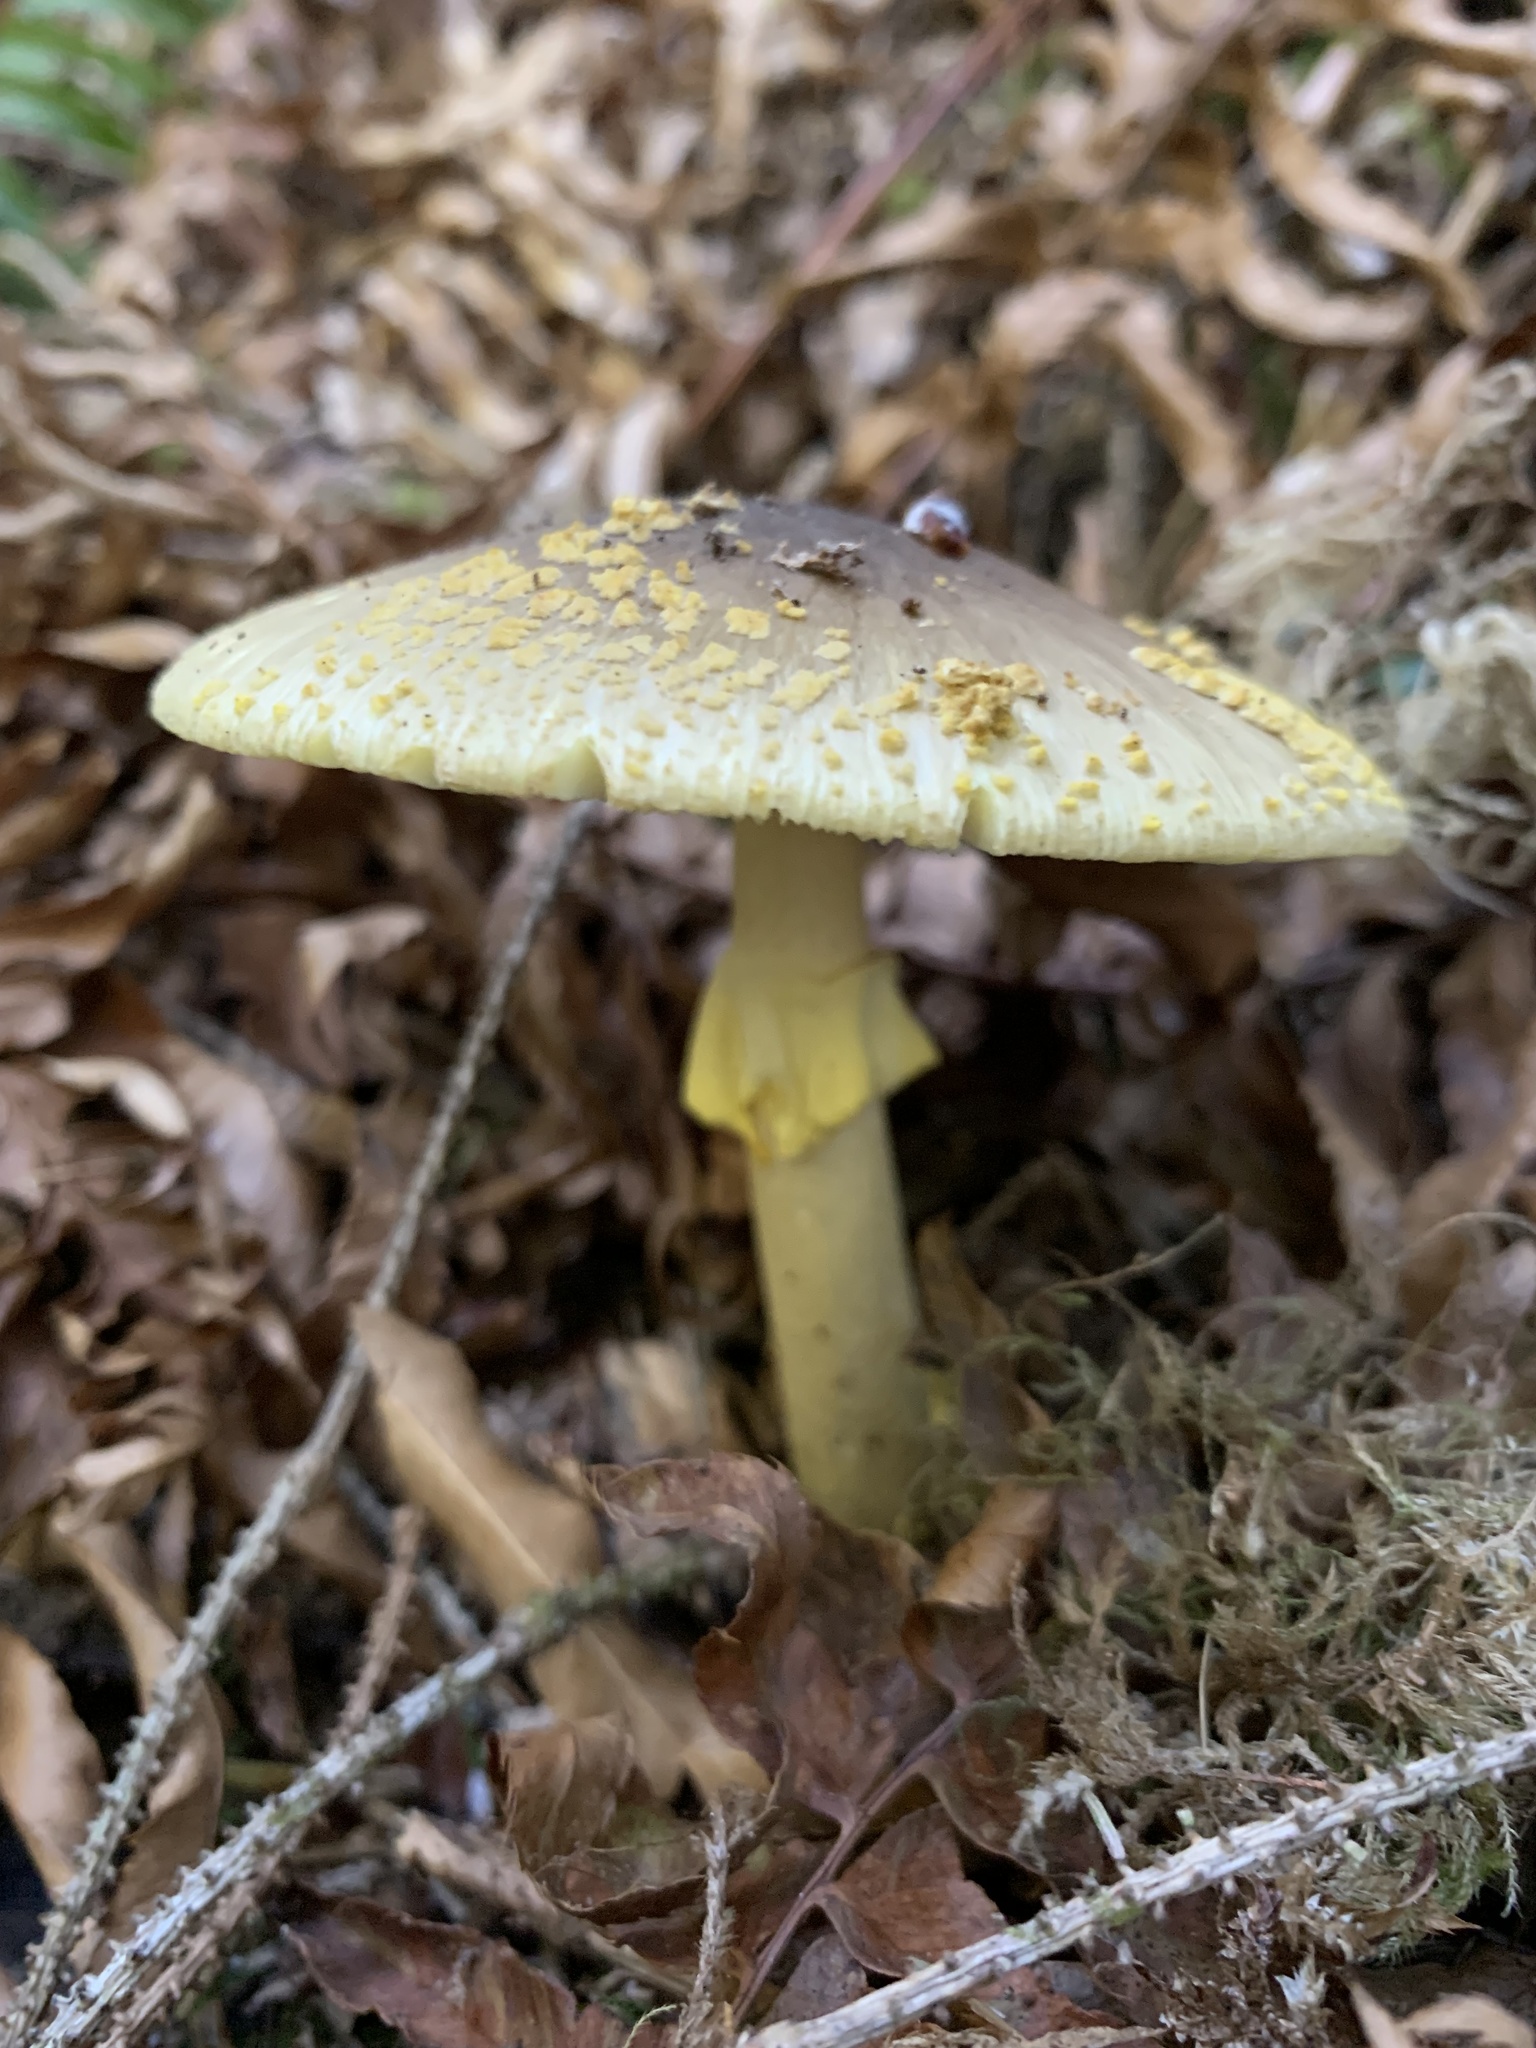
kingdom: Fungi
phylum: Basidiomycota
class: Agaricomycetes
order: Agaricales
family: Amanitaceae
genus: Amanita
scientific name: Amanita augusta
